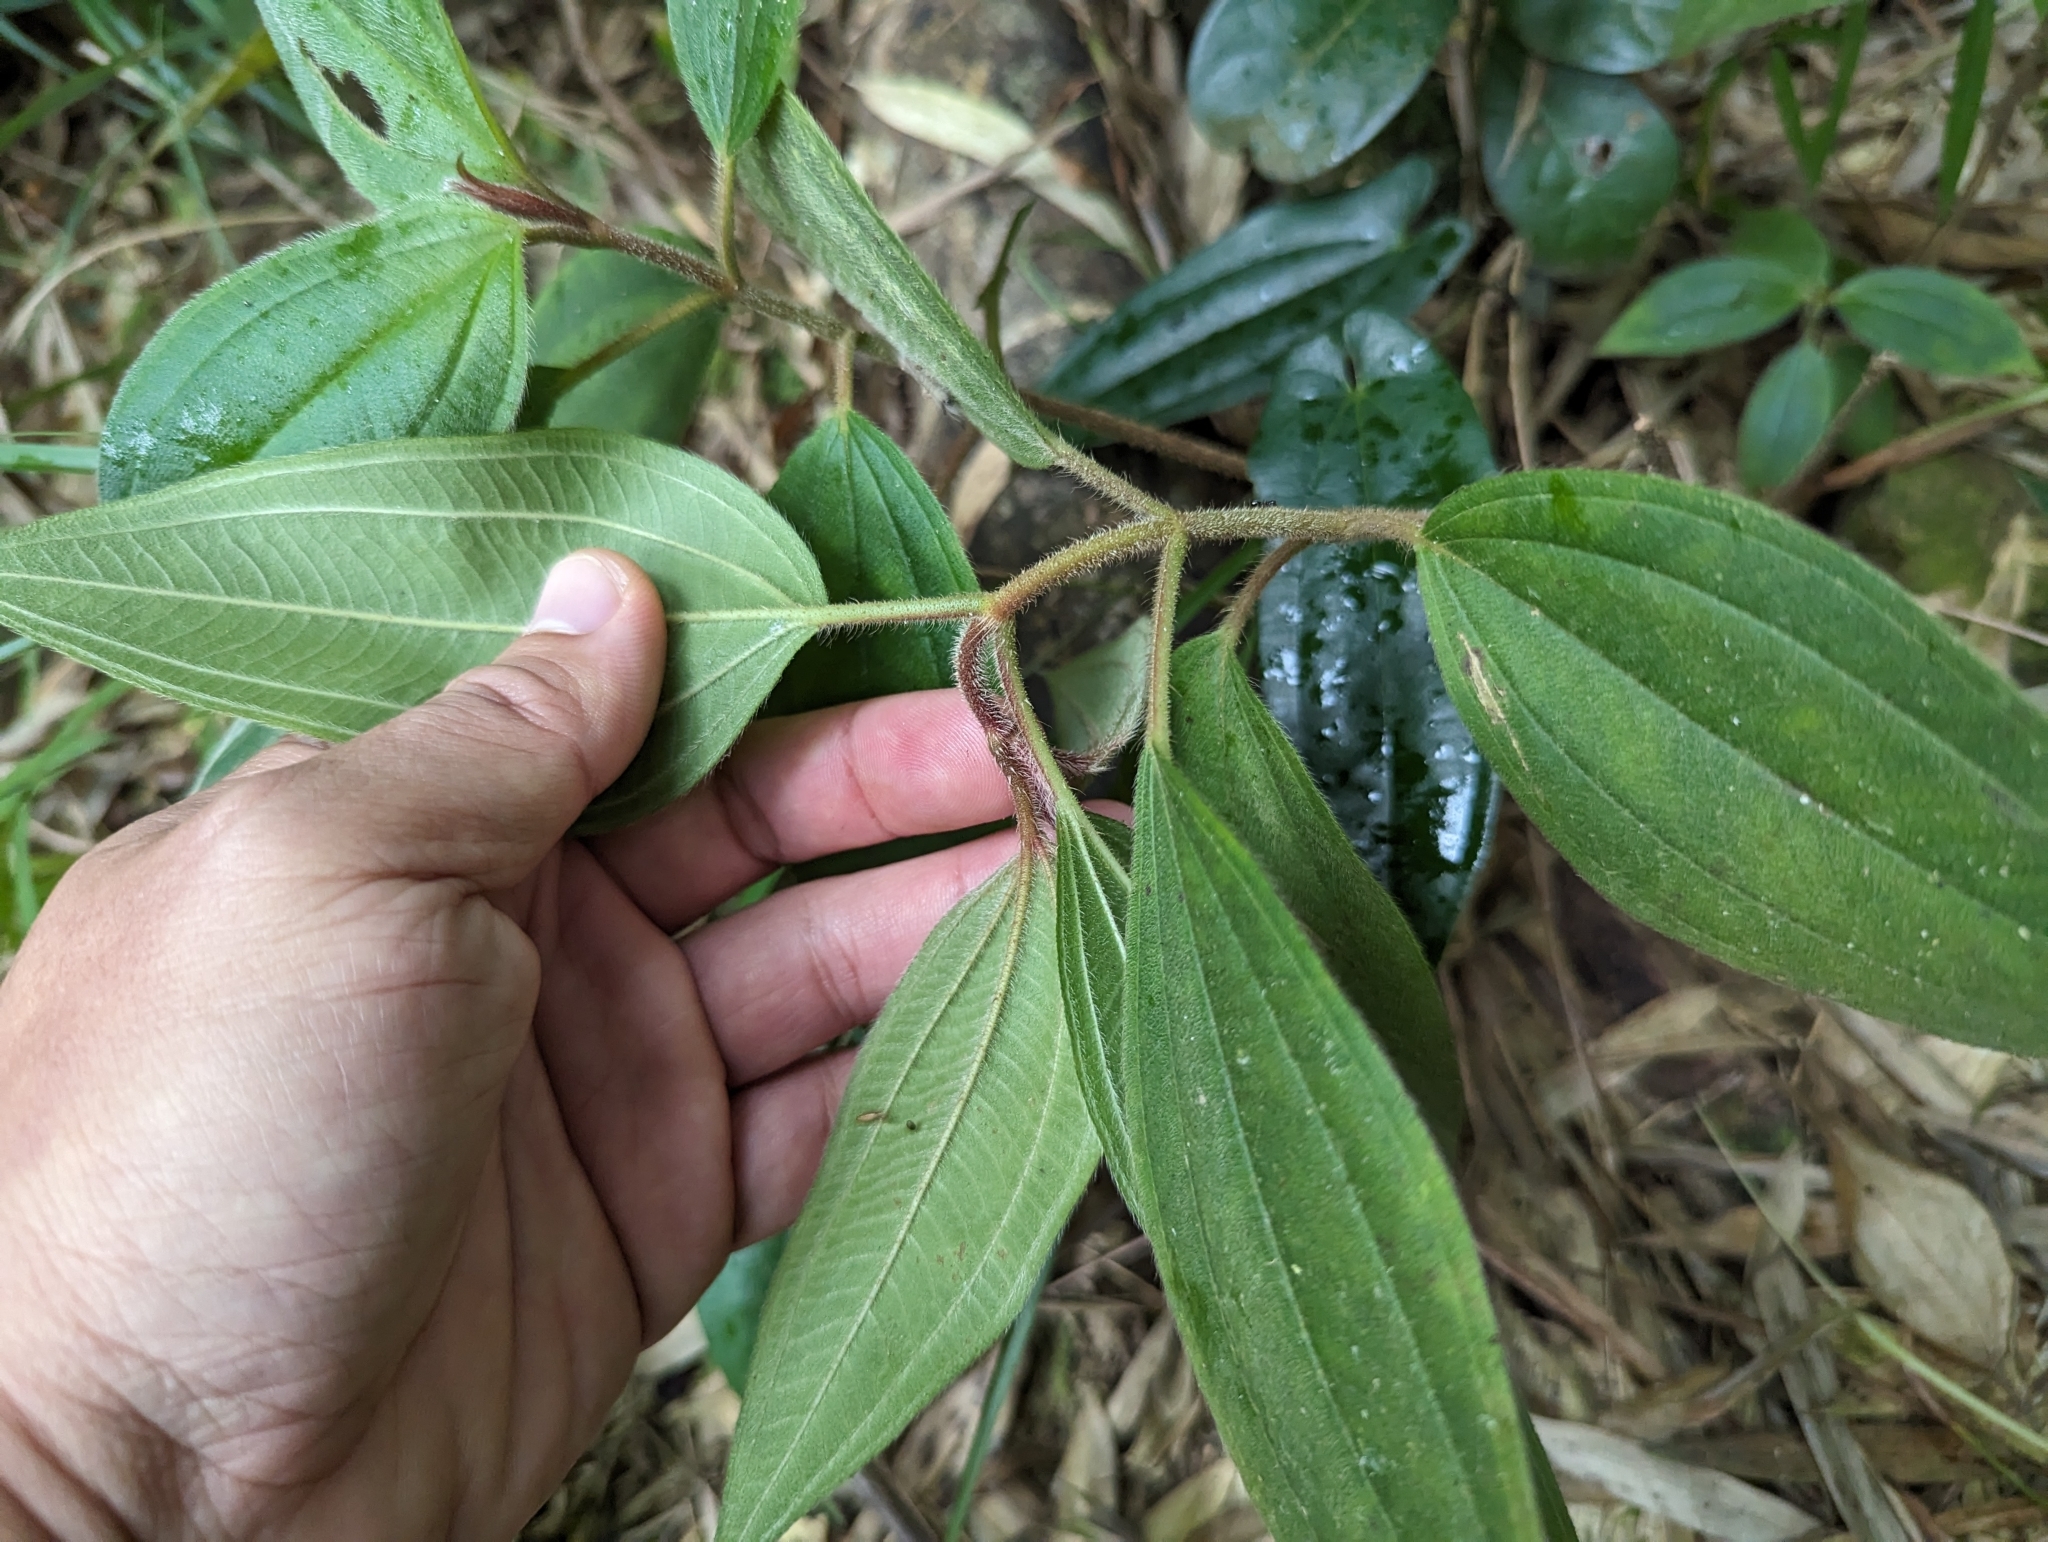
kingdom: Plantae
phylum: Tracheophyta
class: Magnoliopsida
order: Myrtales
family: Melastomataceae
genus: Melastoma
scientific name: Melastoma malabathricum
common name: Indian-rhododendron
